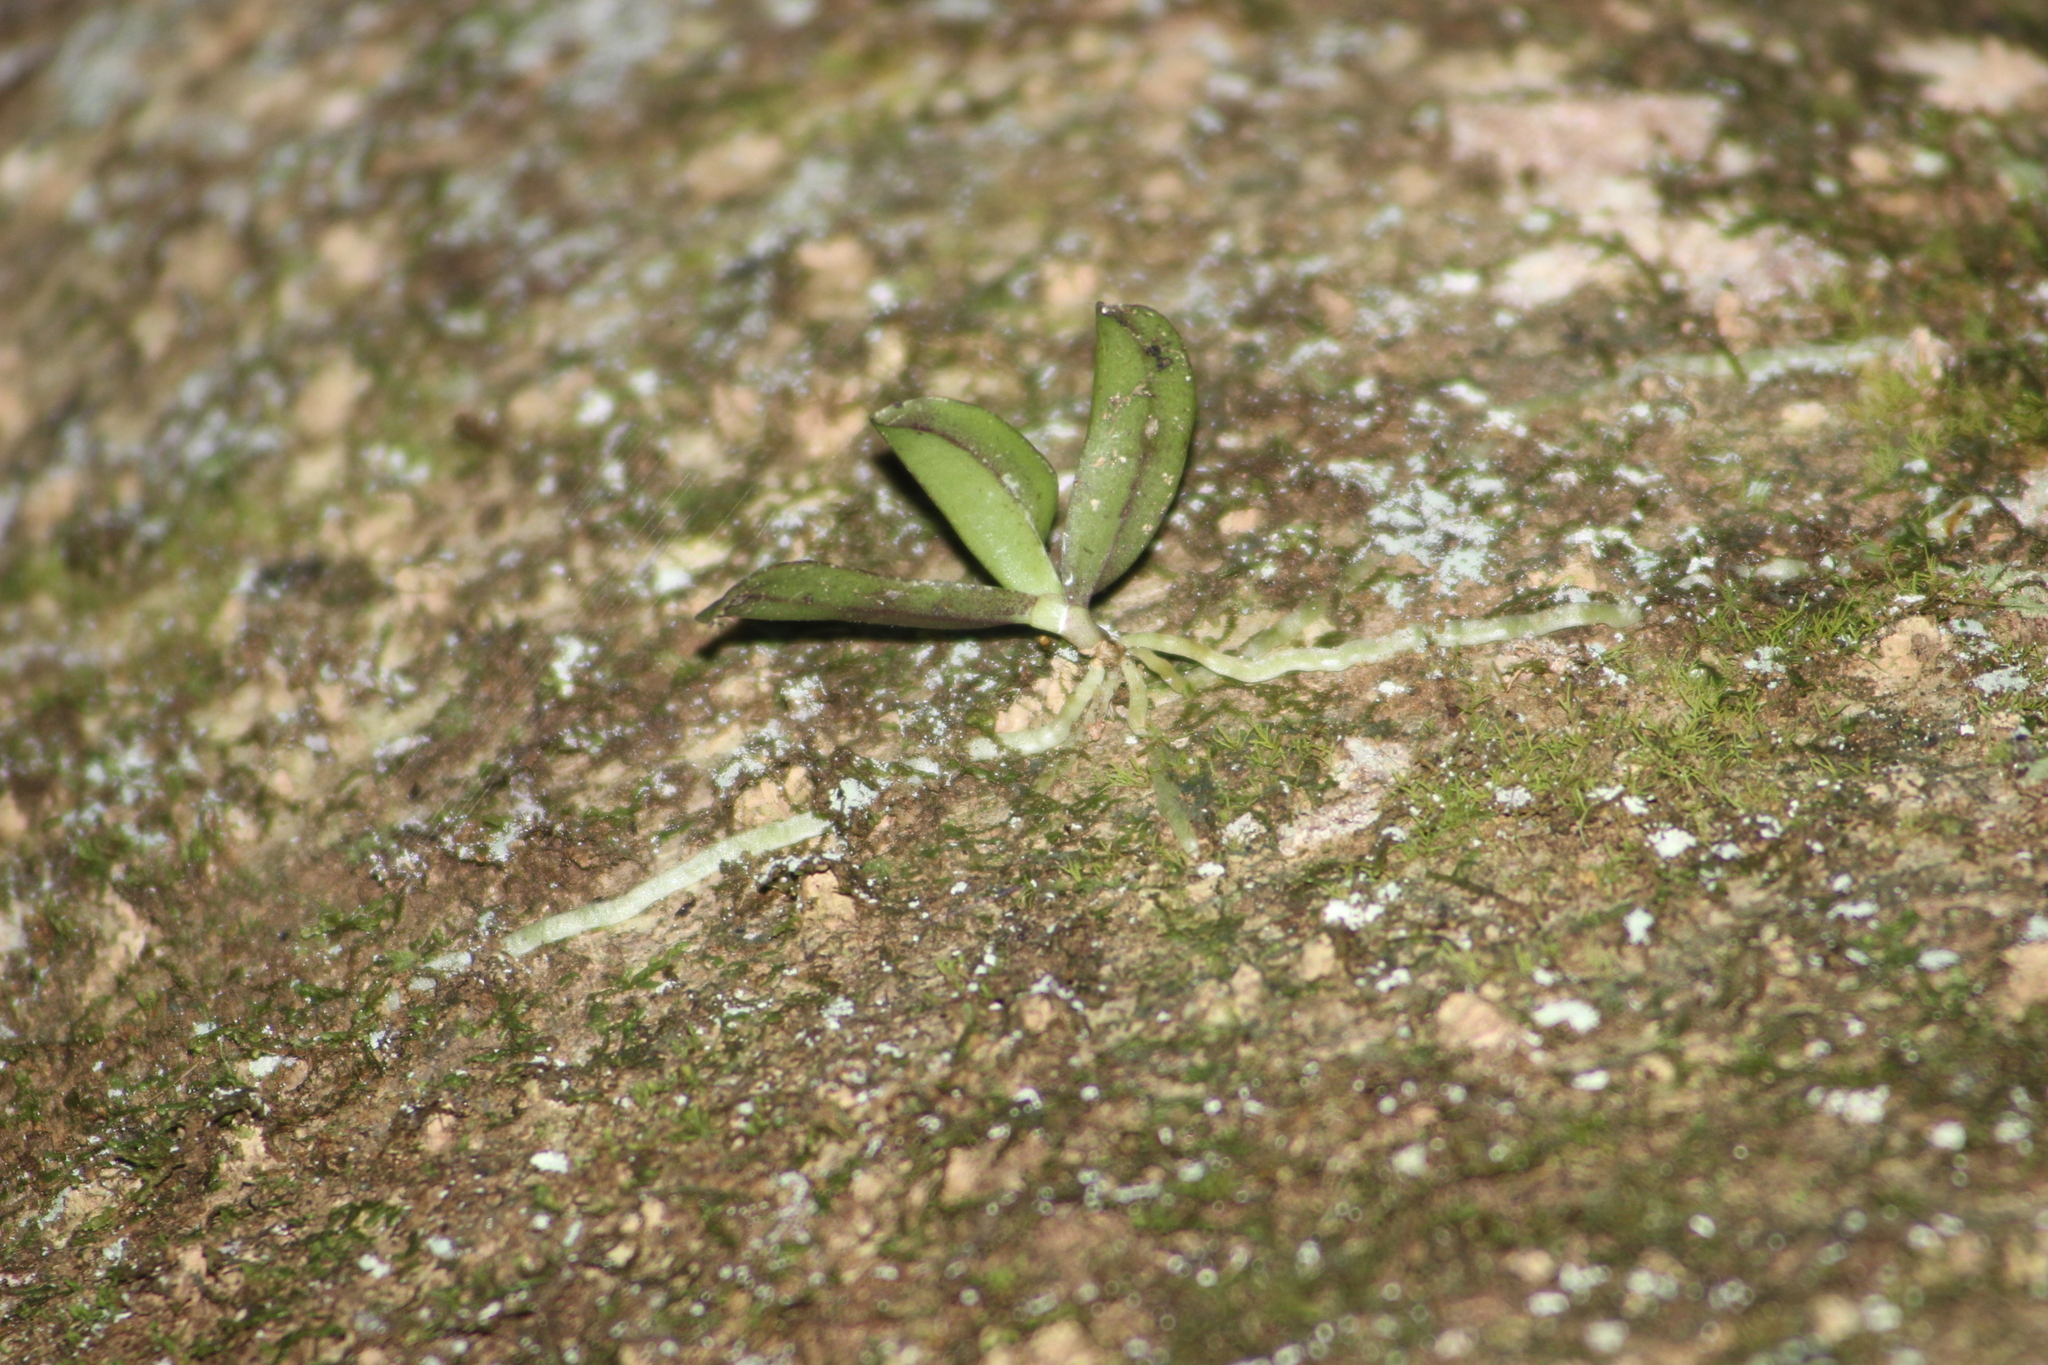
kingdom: Plantae
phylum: Tracheophyta
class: Liliopsida
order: Asparagales
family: Orchidaceae
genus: Drymoanthus
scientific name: Drymoanthus adversus
